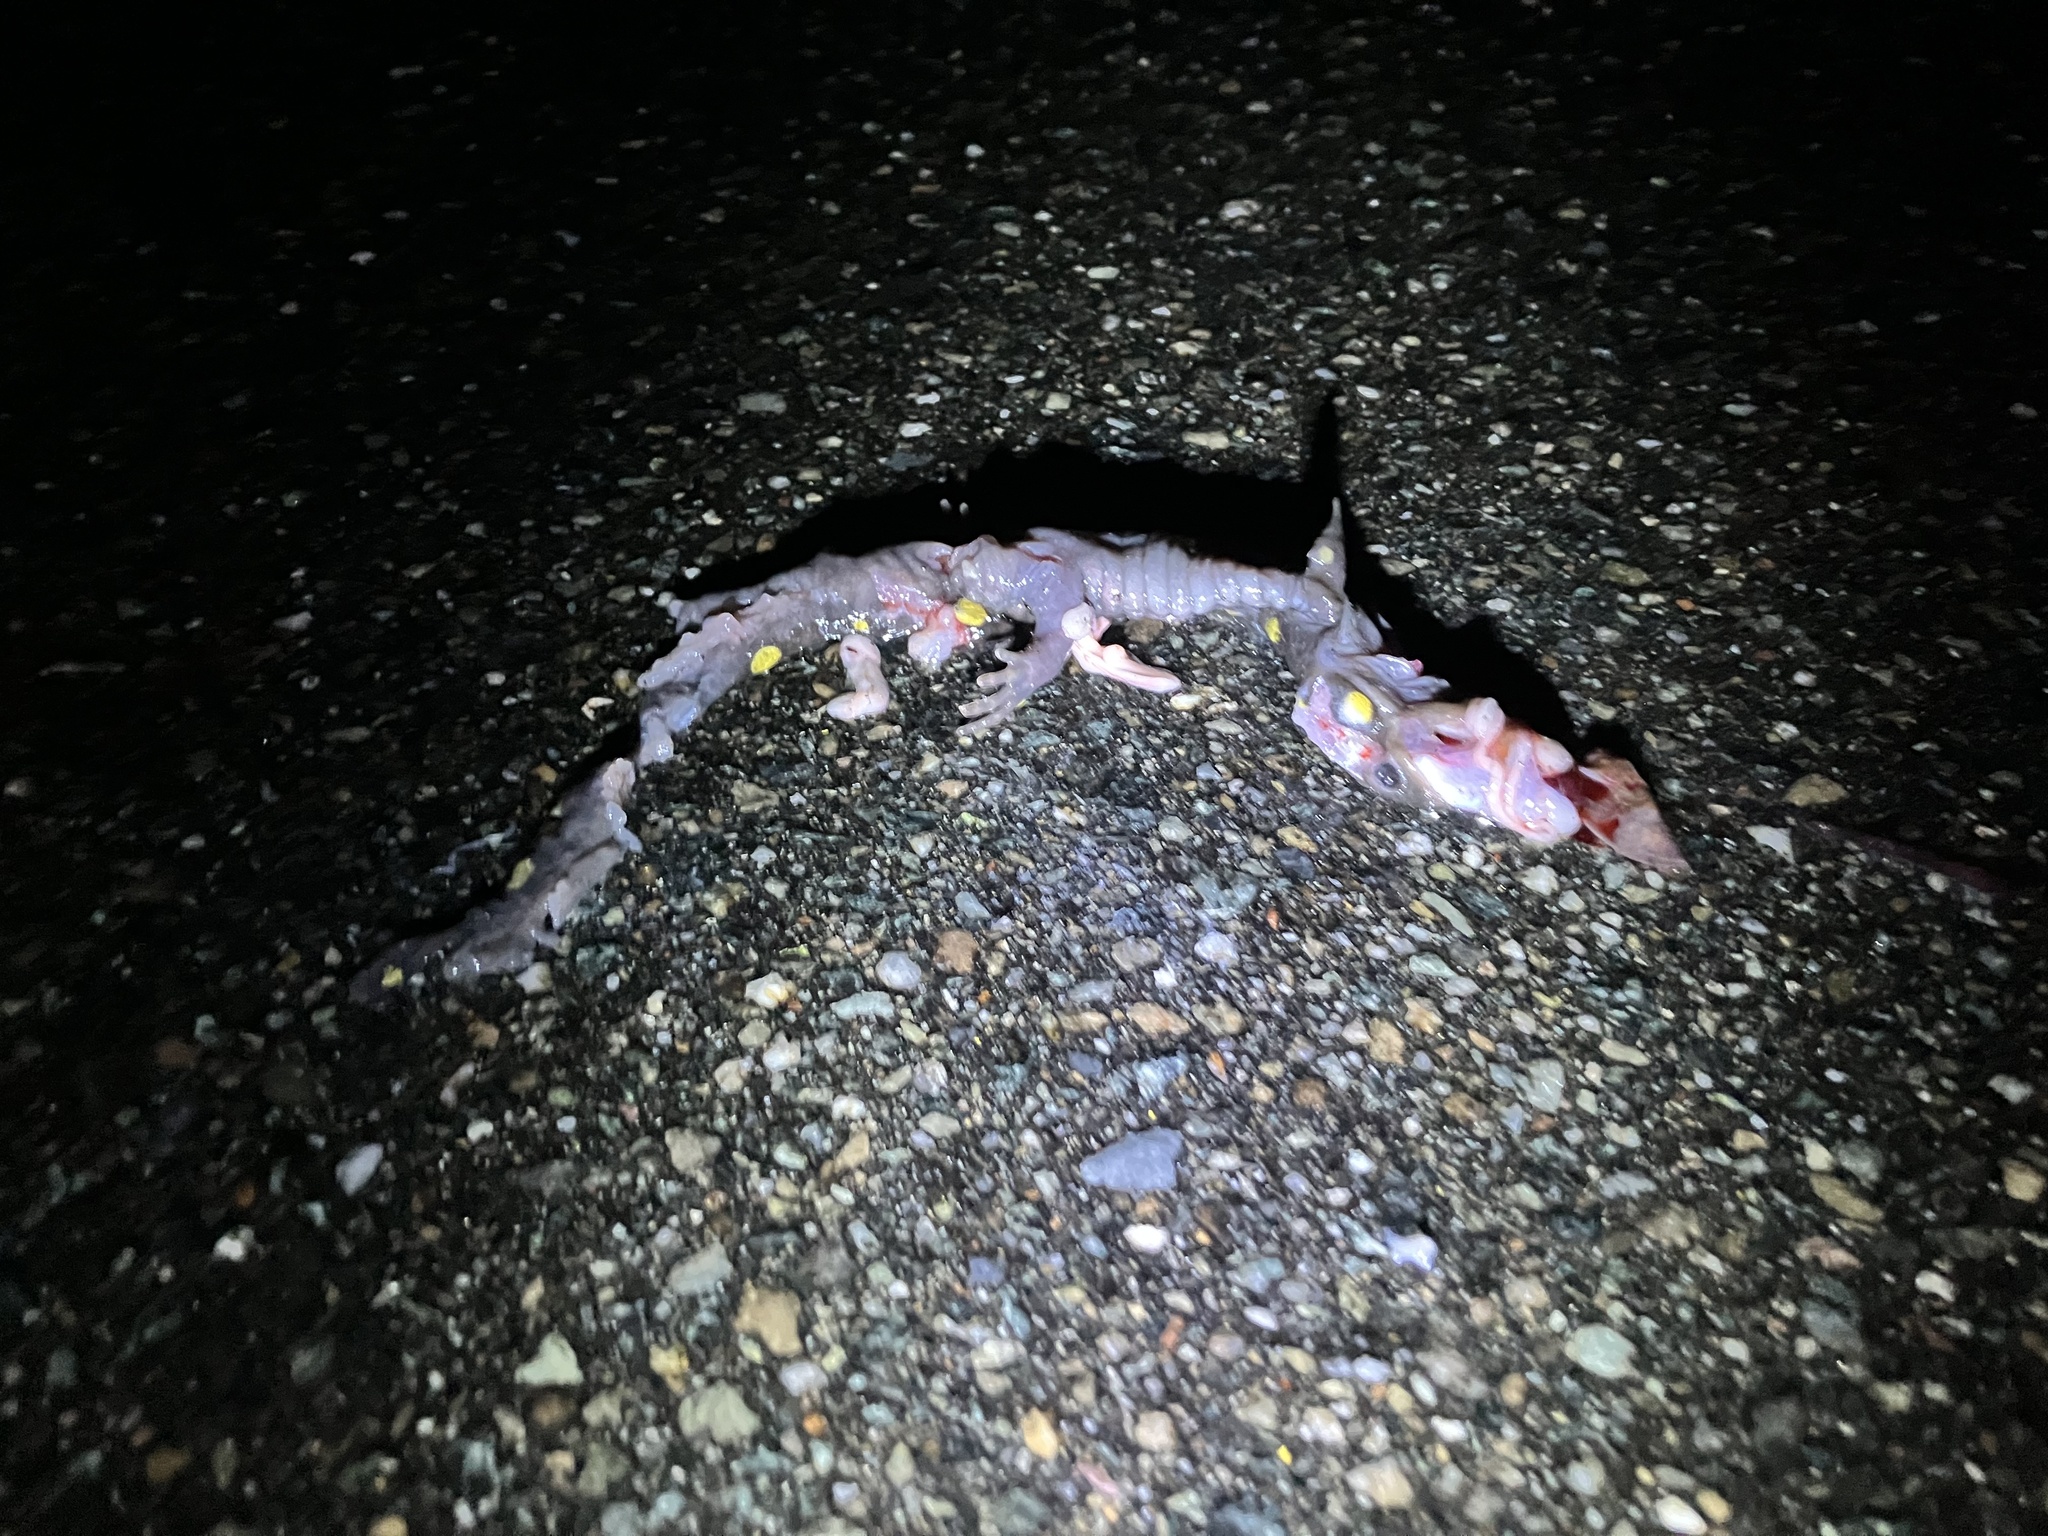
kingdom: Animalia
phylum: Chordata
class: Amphibia
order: Caudata
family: Ambystomatidae
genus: Ambystoma
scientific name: Ambystoma maculatum
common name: Spotted salamander
